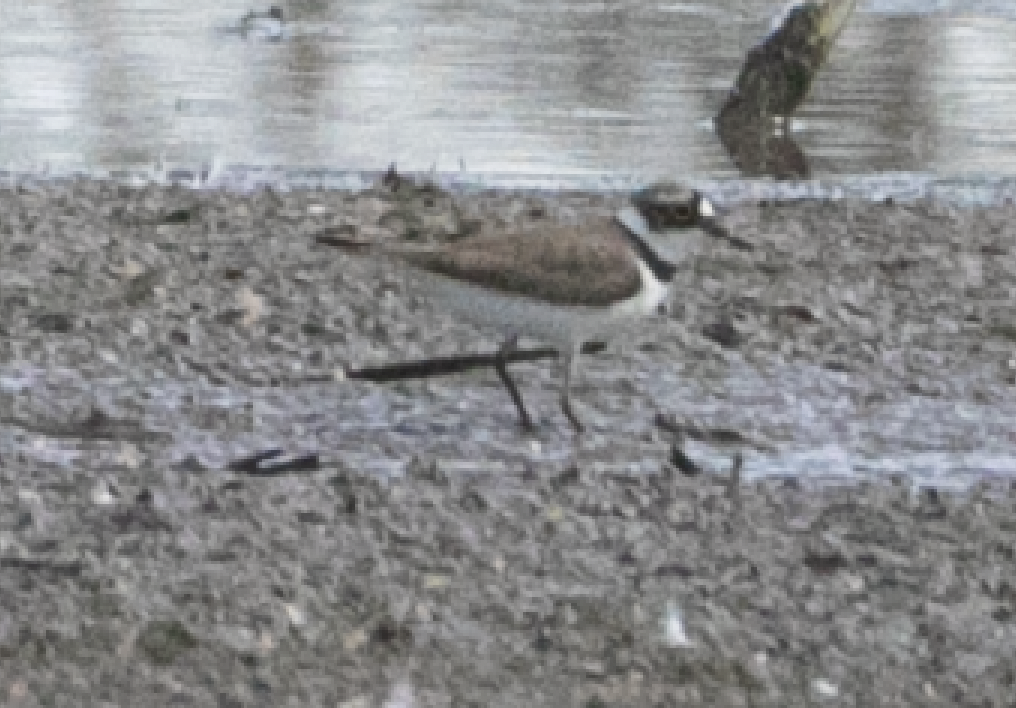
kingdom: Animalia
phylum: Chordata
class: Aves
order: Charadriiformes
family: Charadriidae
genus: Charadrius
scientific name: Charadrius dubius
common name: Little ringed plover
